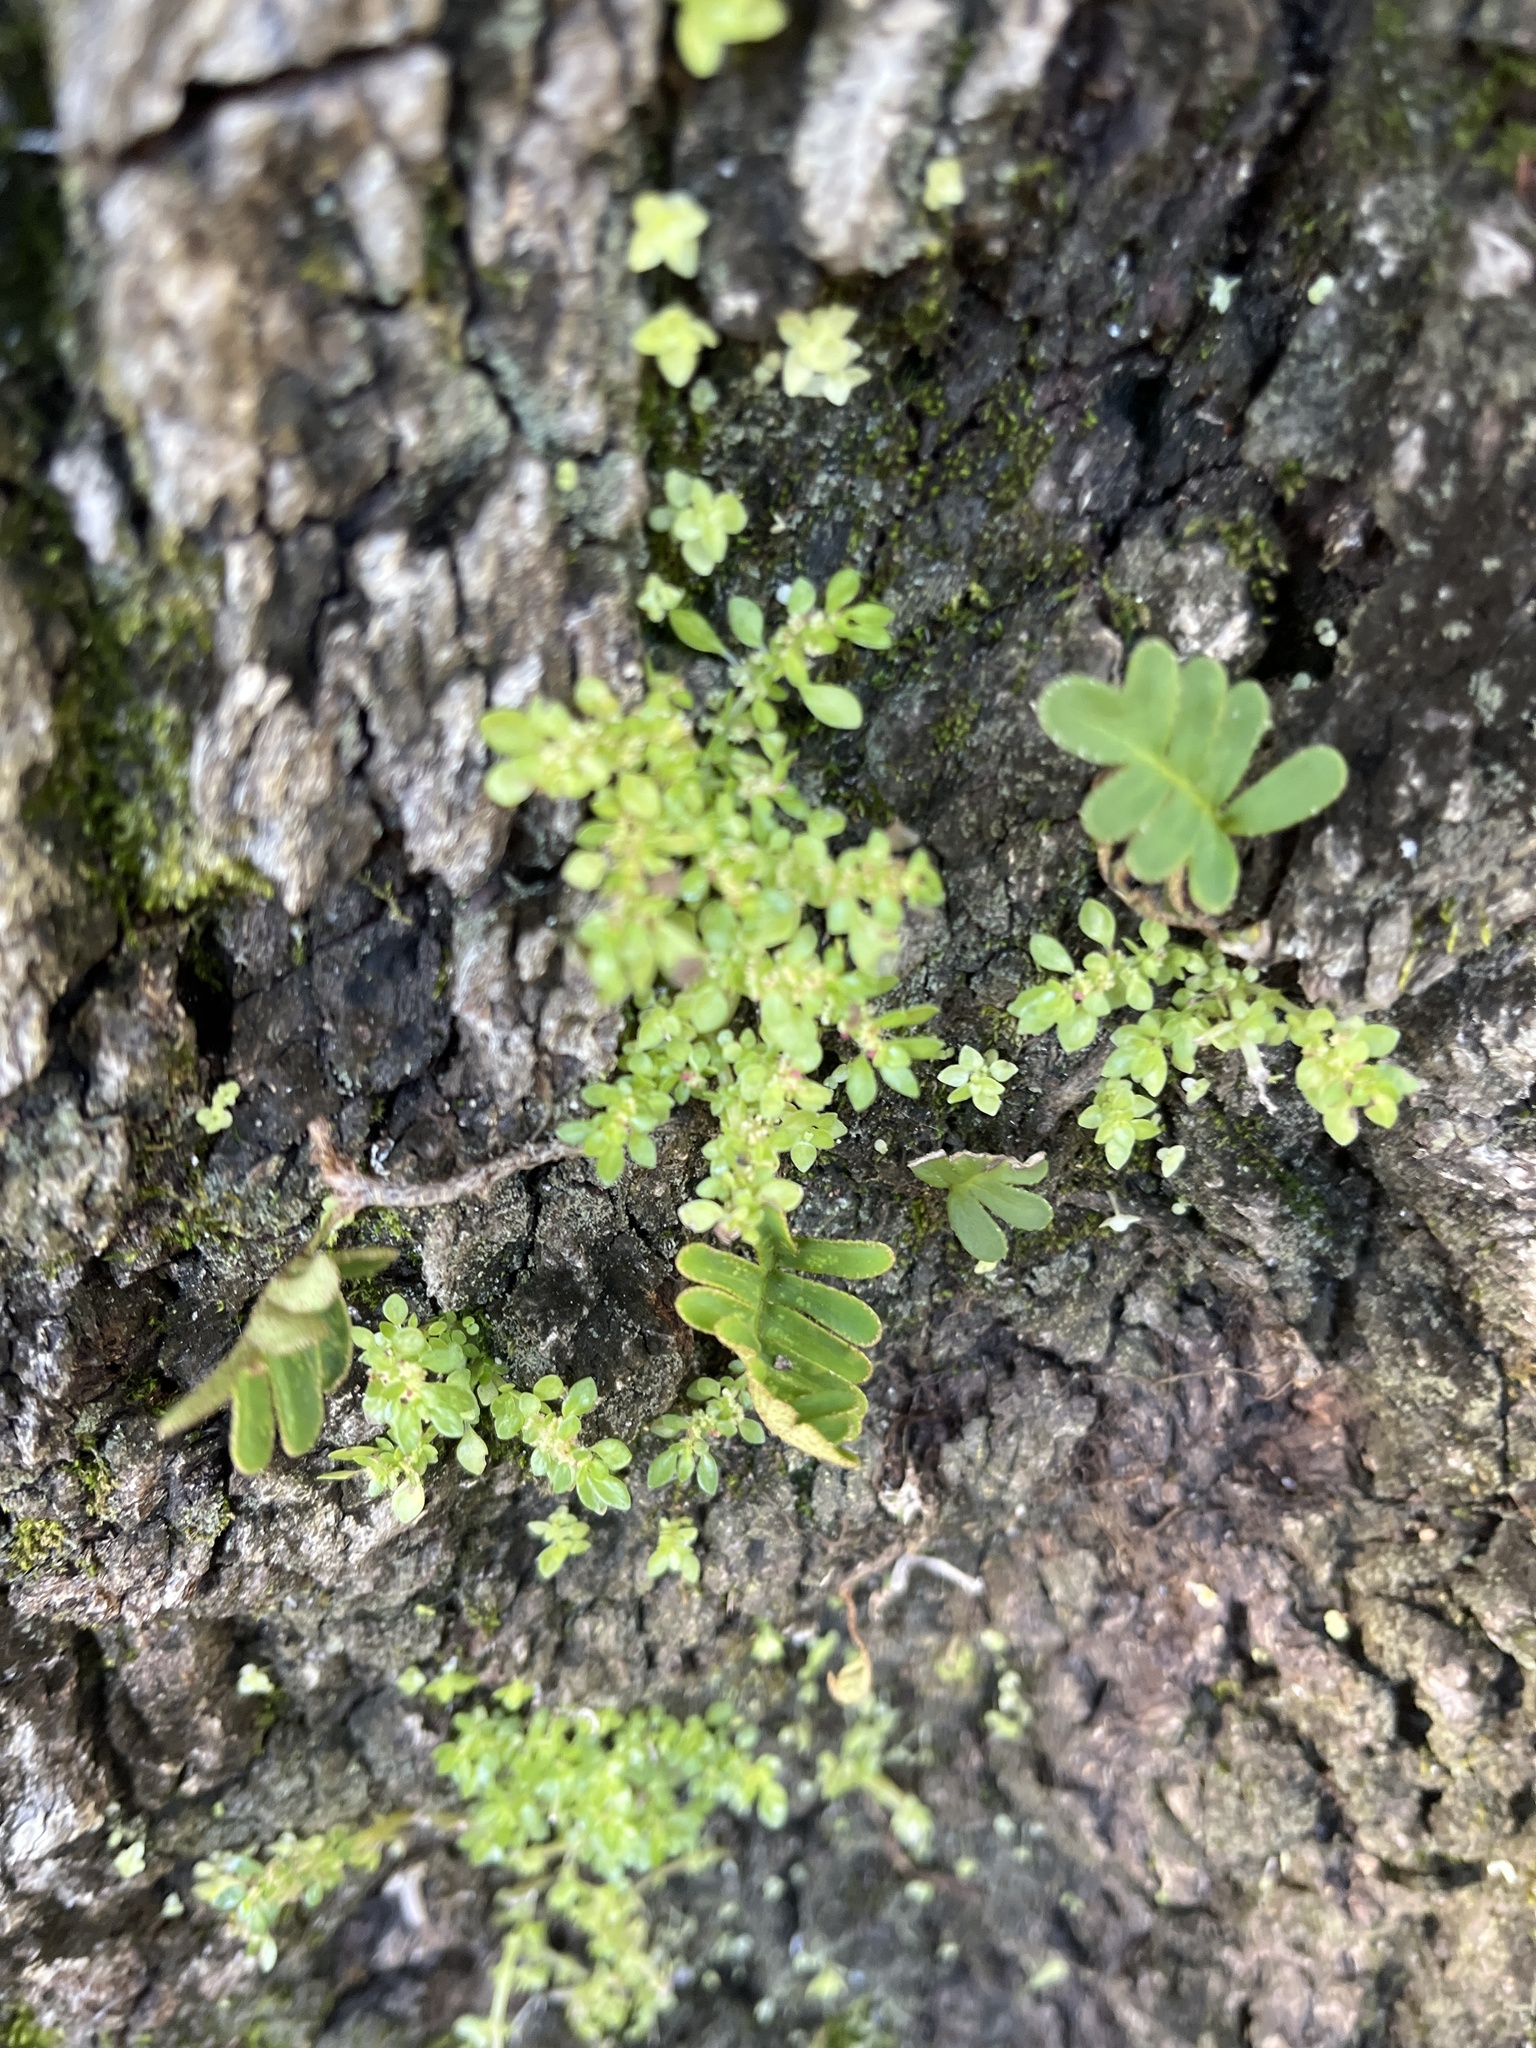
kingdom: Plantae
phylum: Tracheophyta
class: Magnoliopsida
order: Rosales
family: Urticaceae
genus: Pilea
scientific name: Pilea microphylla
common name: Artillery-plant
